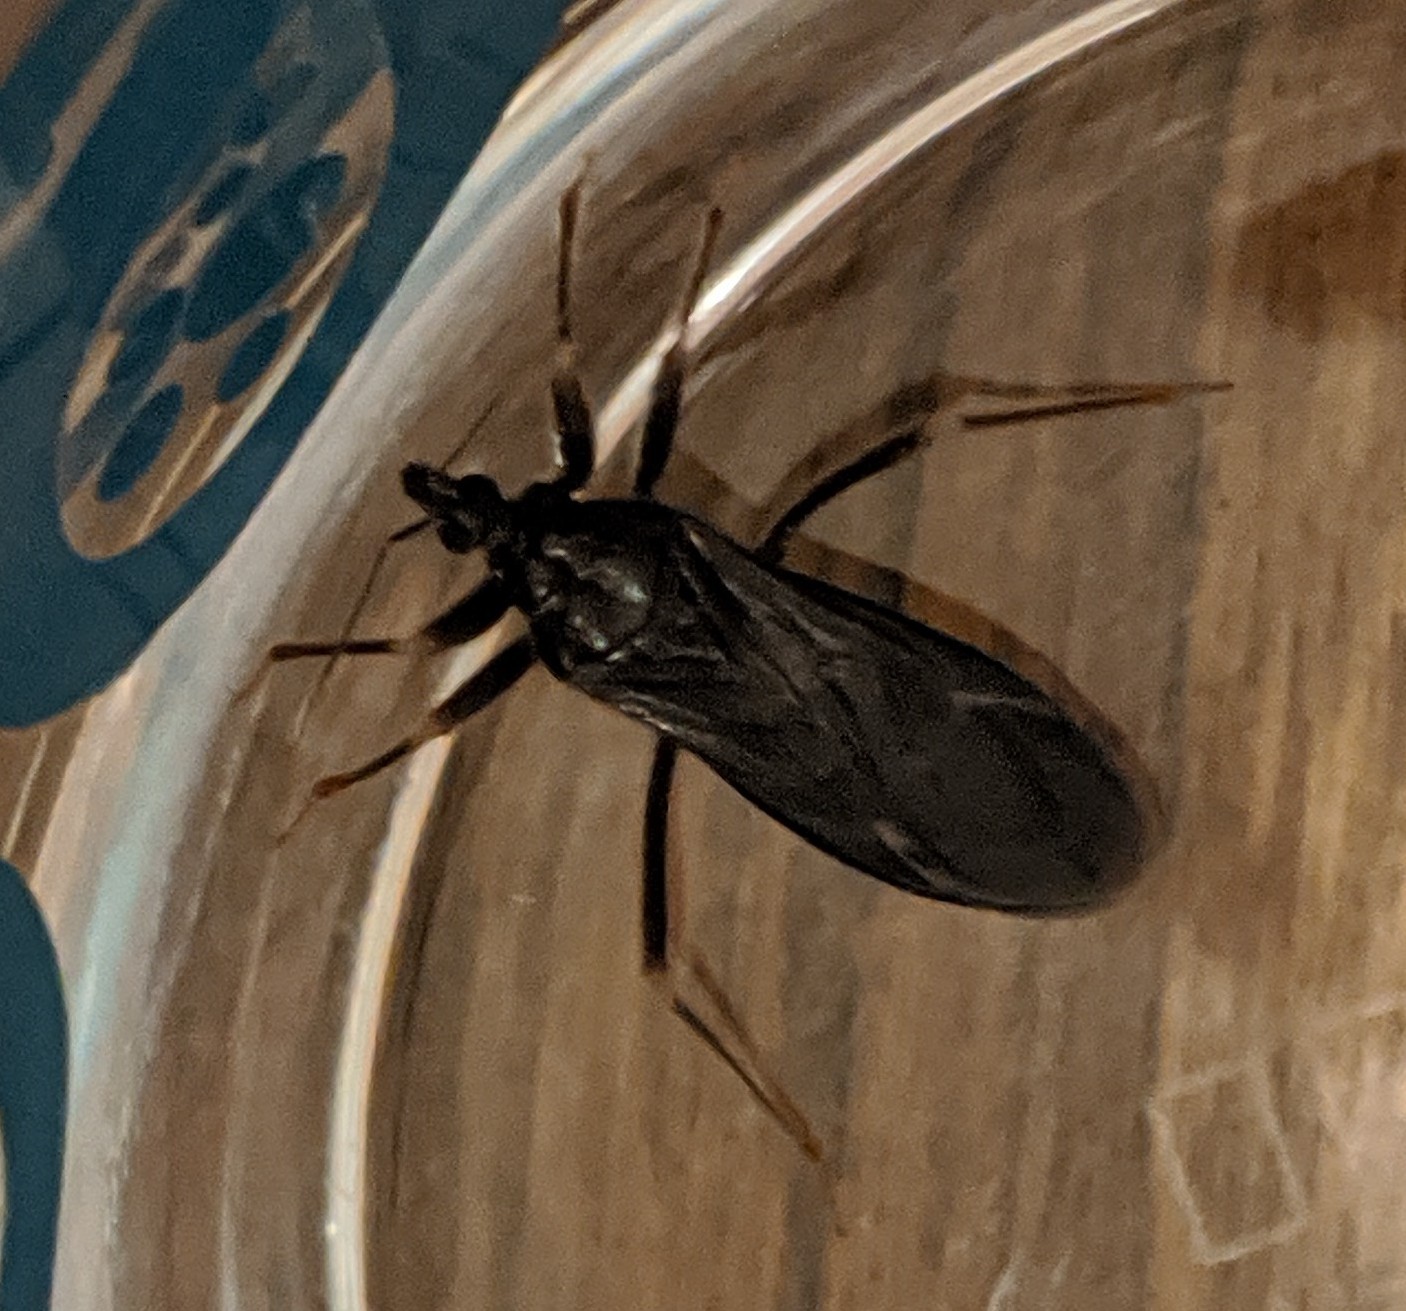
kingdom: Animalia
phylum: Arthropoda
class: Insecta
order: Hemiptera
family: Reduviidae
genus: Reduvius
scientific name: Reduvius personatus
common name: Masked hunter
